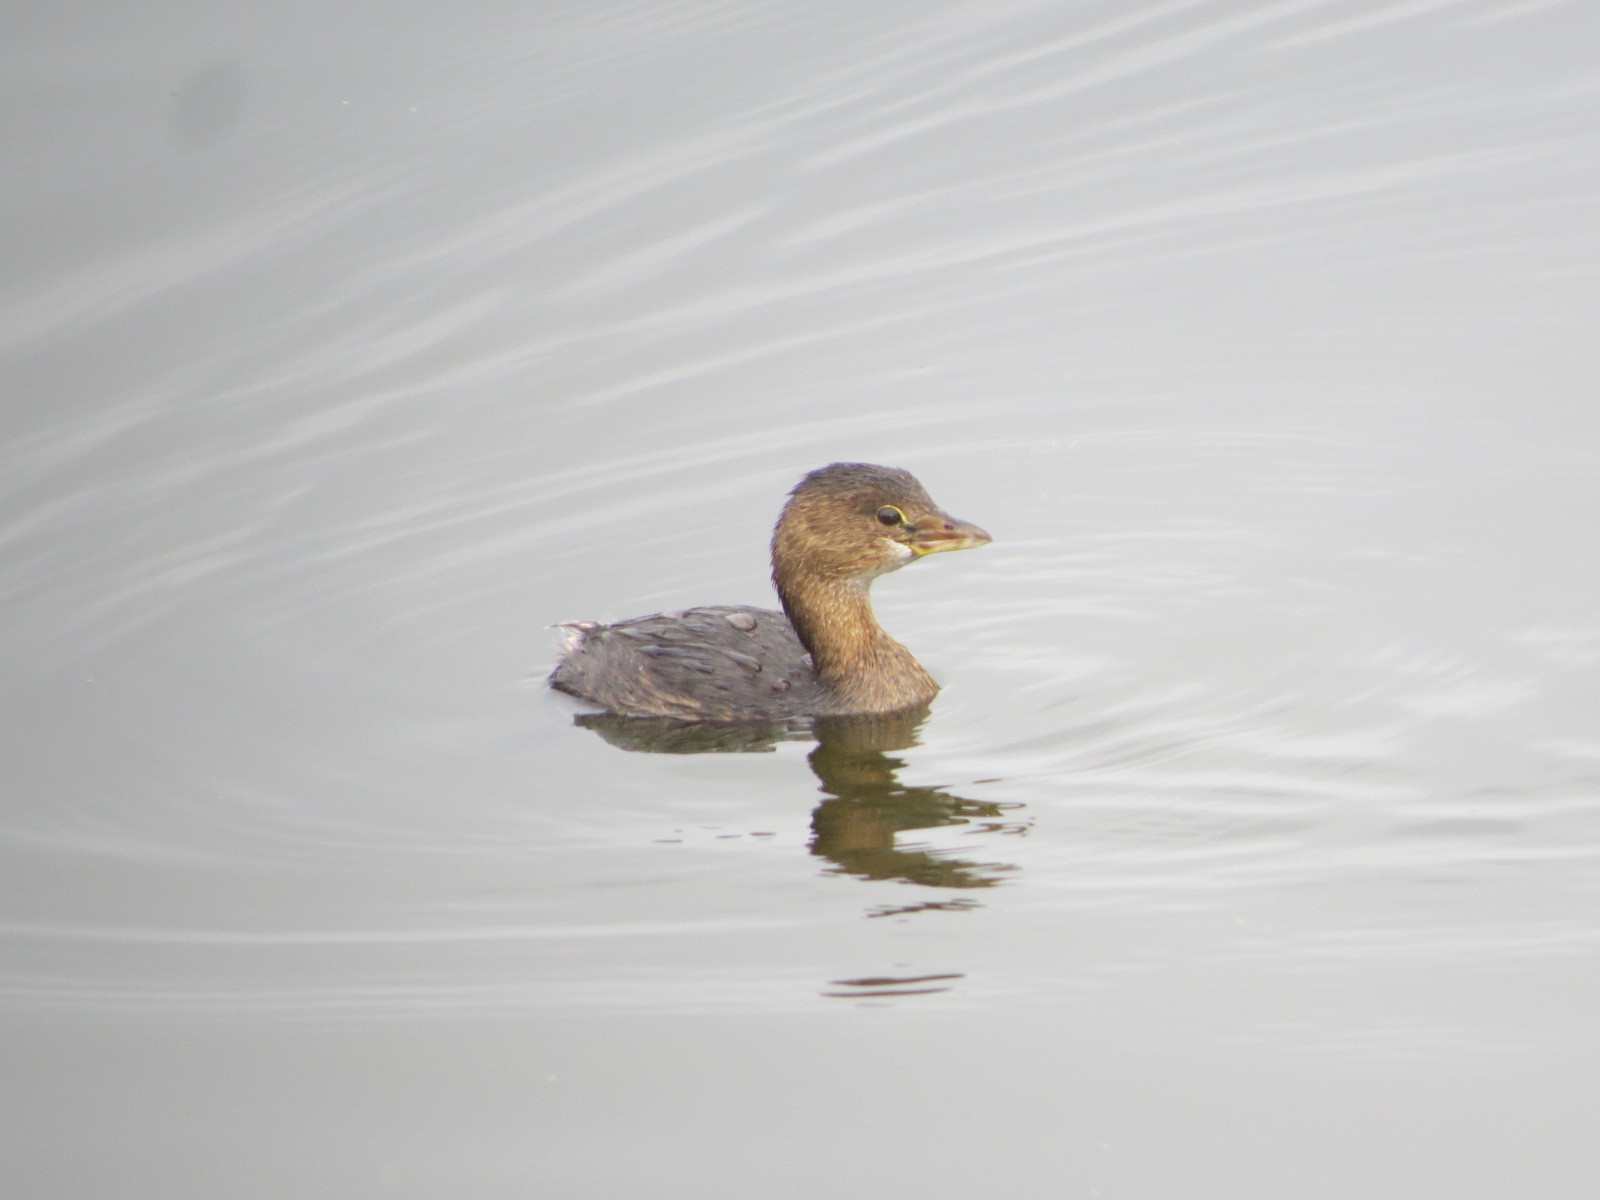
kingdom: Animalia
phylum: Chordata
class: Aves
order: Podicipediformes
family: Podicipedidae
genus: Podilymbus
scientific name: Podilymbus podiceps
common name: Pied-billed grebe
